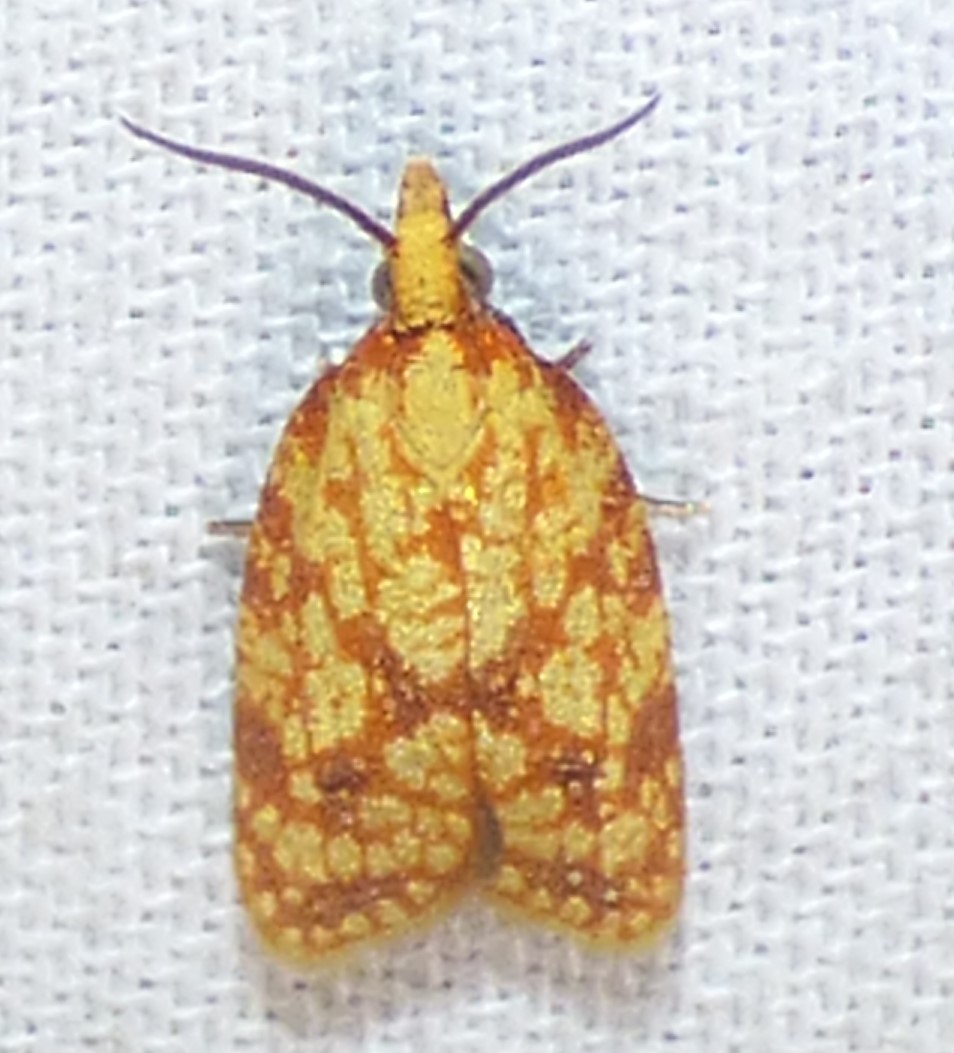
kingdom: Animalia
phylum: Arthropoda
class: Insecta
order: Lepidoptera
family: Tortricidae
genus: Sparganothis
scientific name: Sparganothis sulfureana
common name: Sparganothis fruitworm moth
